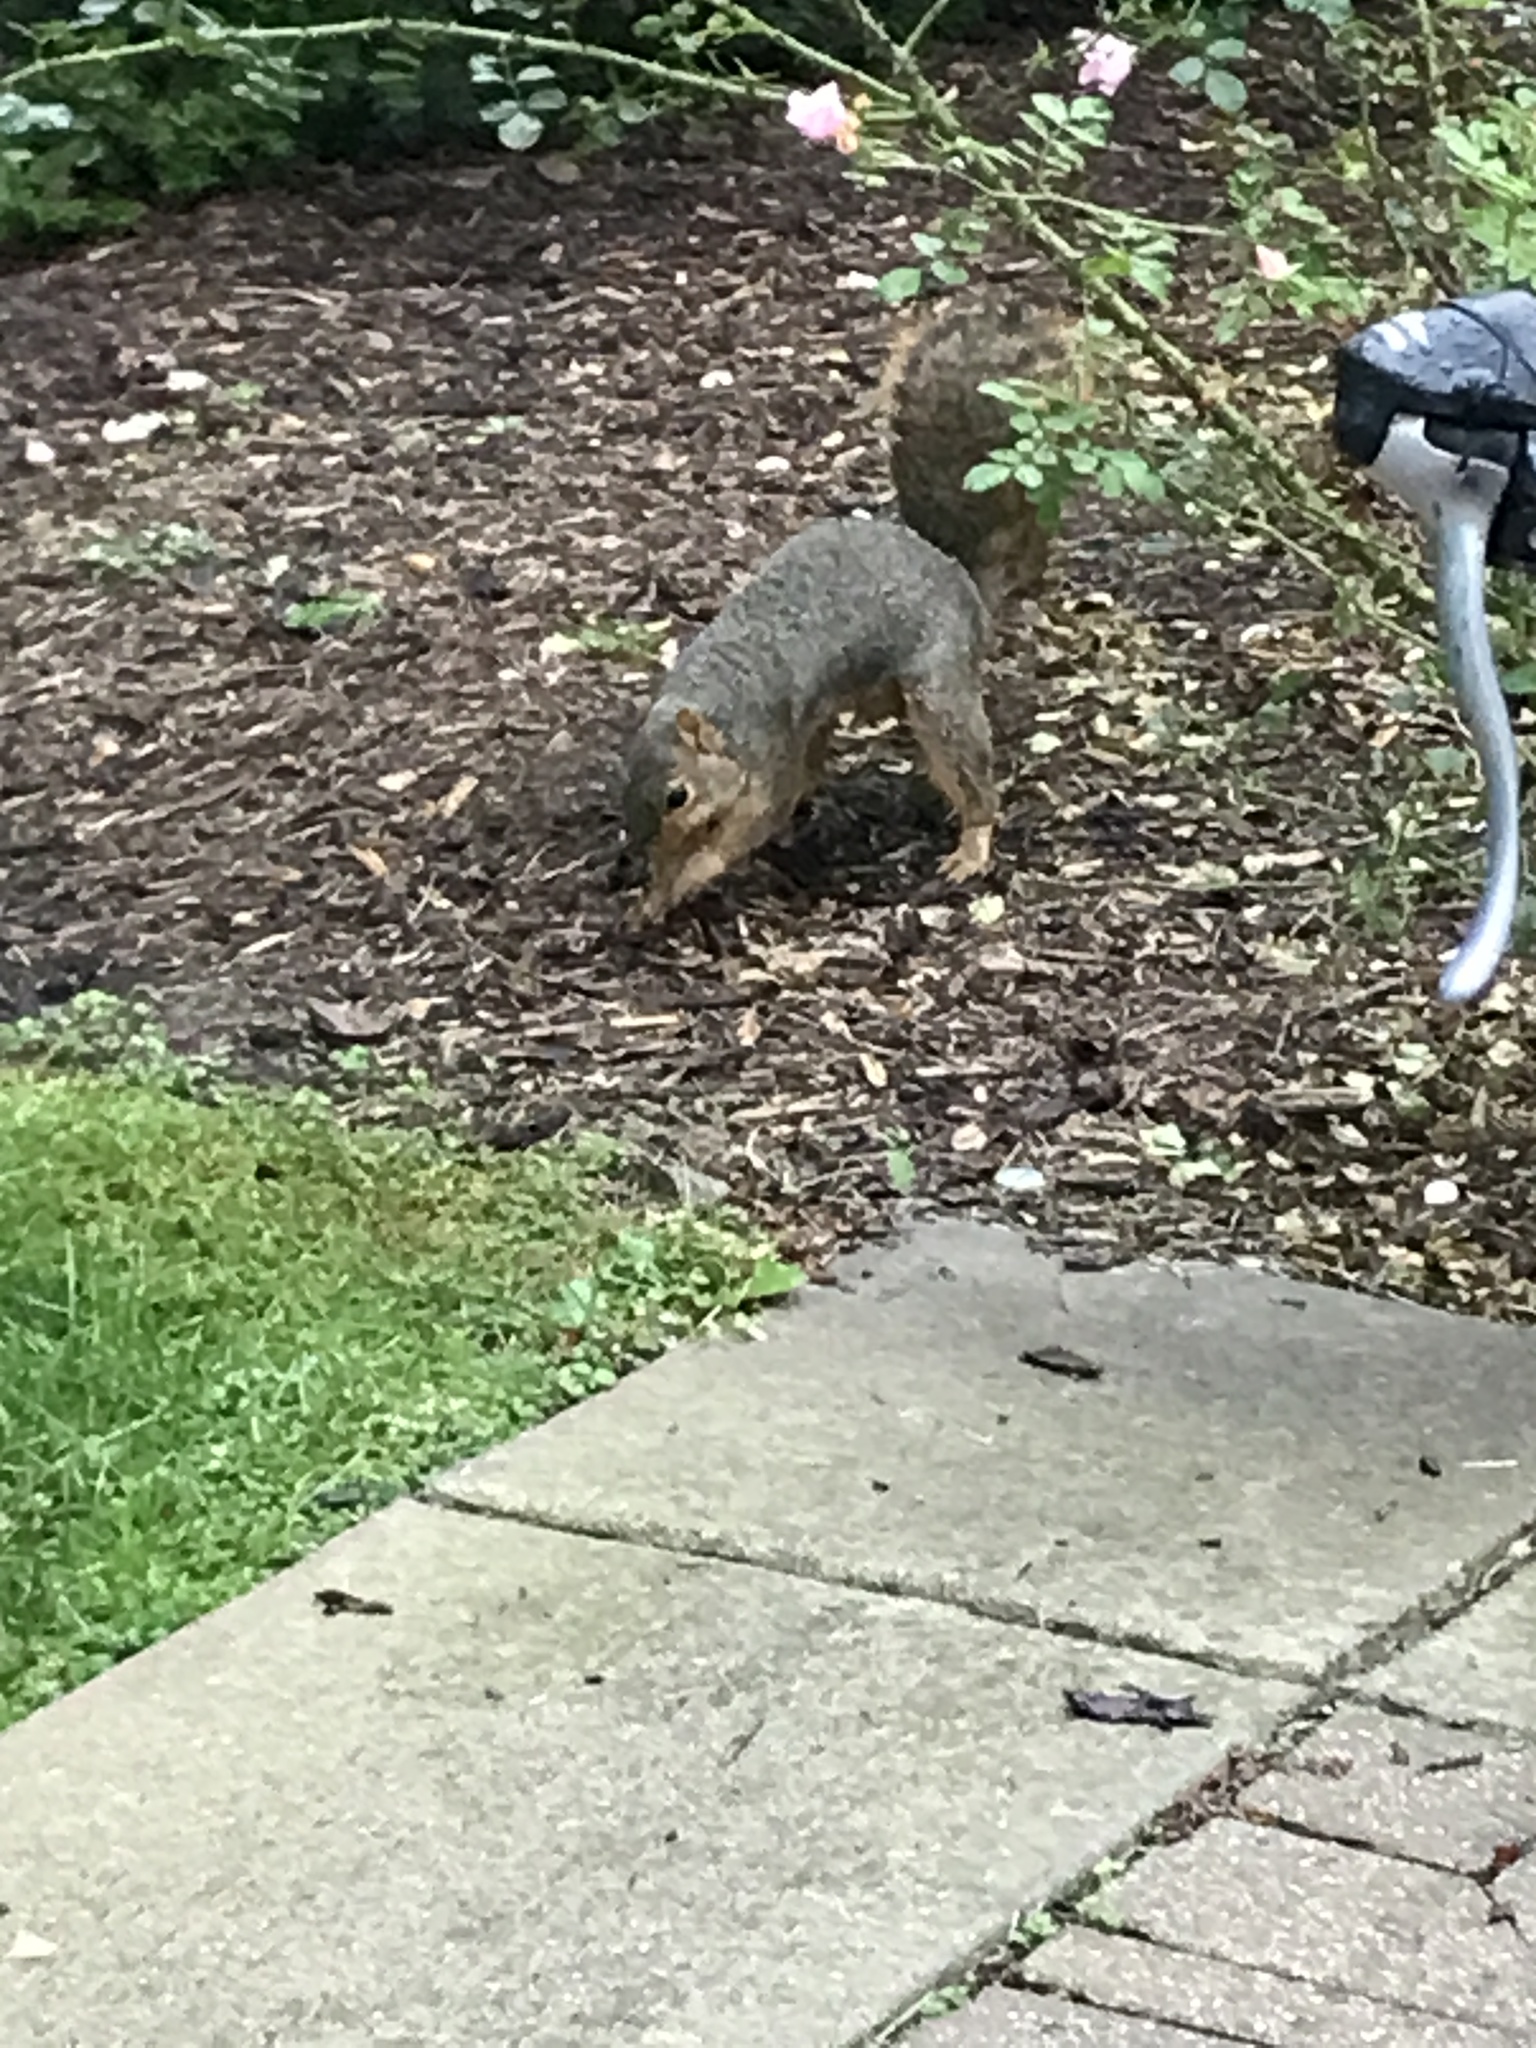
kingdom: Animalia
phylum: Chordata
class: Mammalia
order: Rodentia
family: Sciuridae
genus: Sciurus
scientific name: Sciurus niger
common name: Fox squirrel
